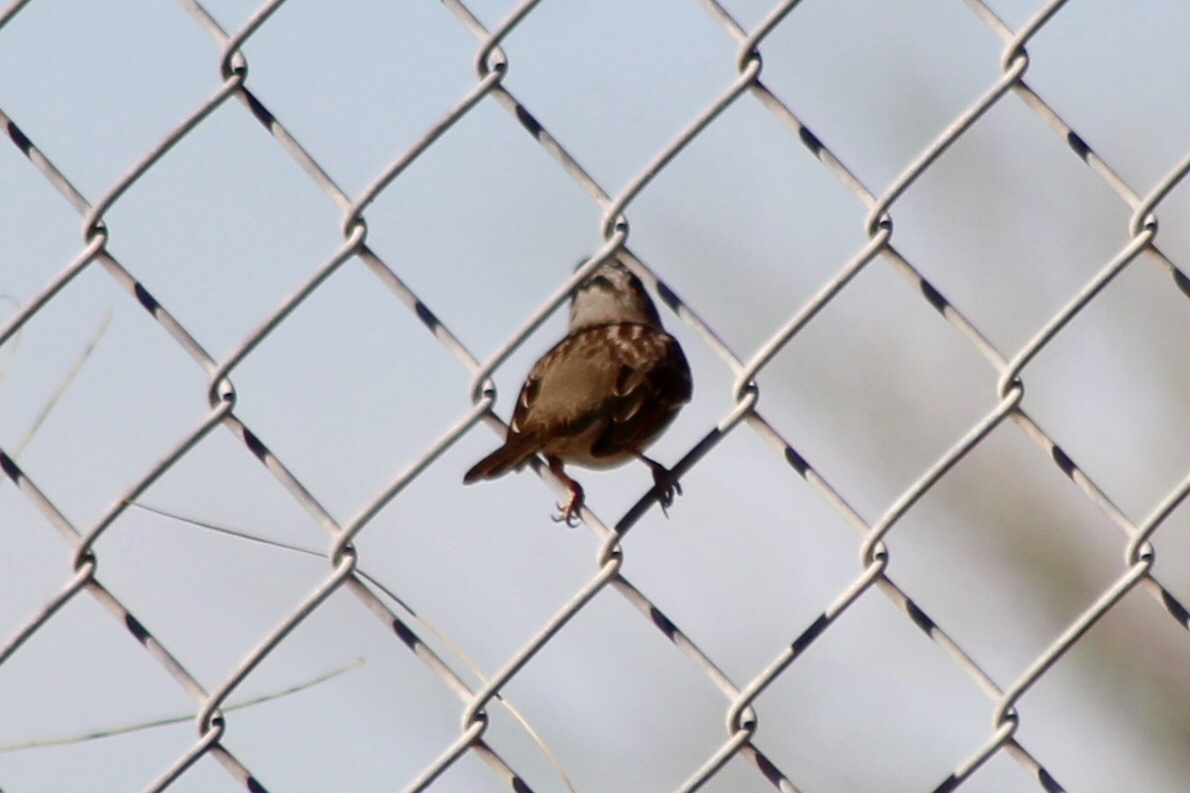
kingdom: Animalia
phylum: Chordata
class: Aves
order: Passeriformes
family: Passerellidae
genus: Zonotrichia
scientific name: Zonotrichia leucophrys
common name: White-crowned sparrow
